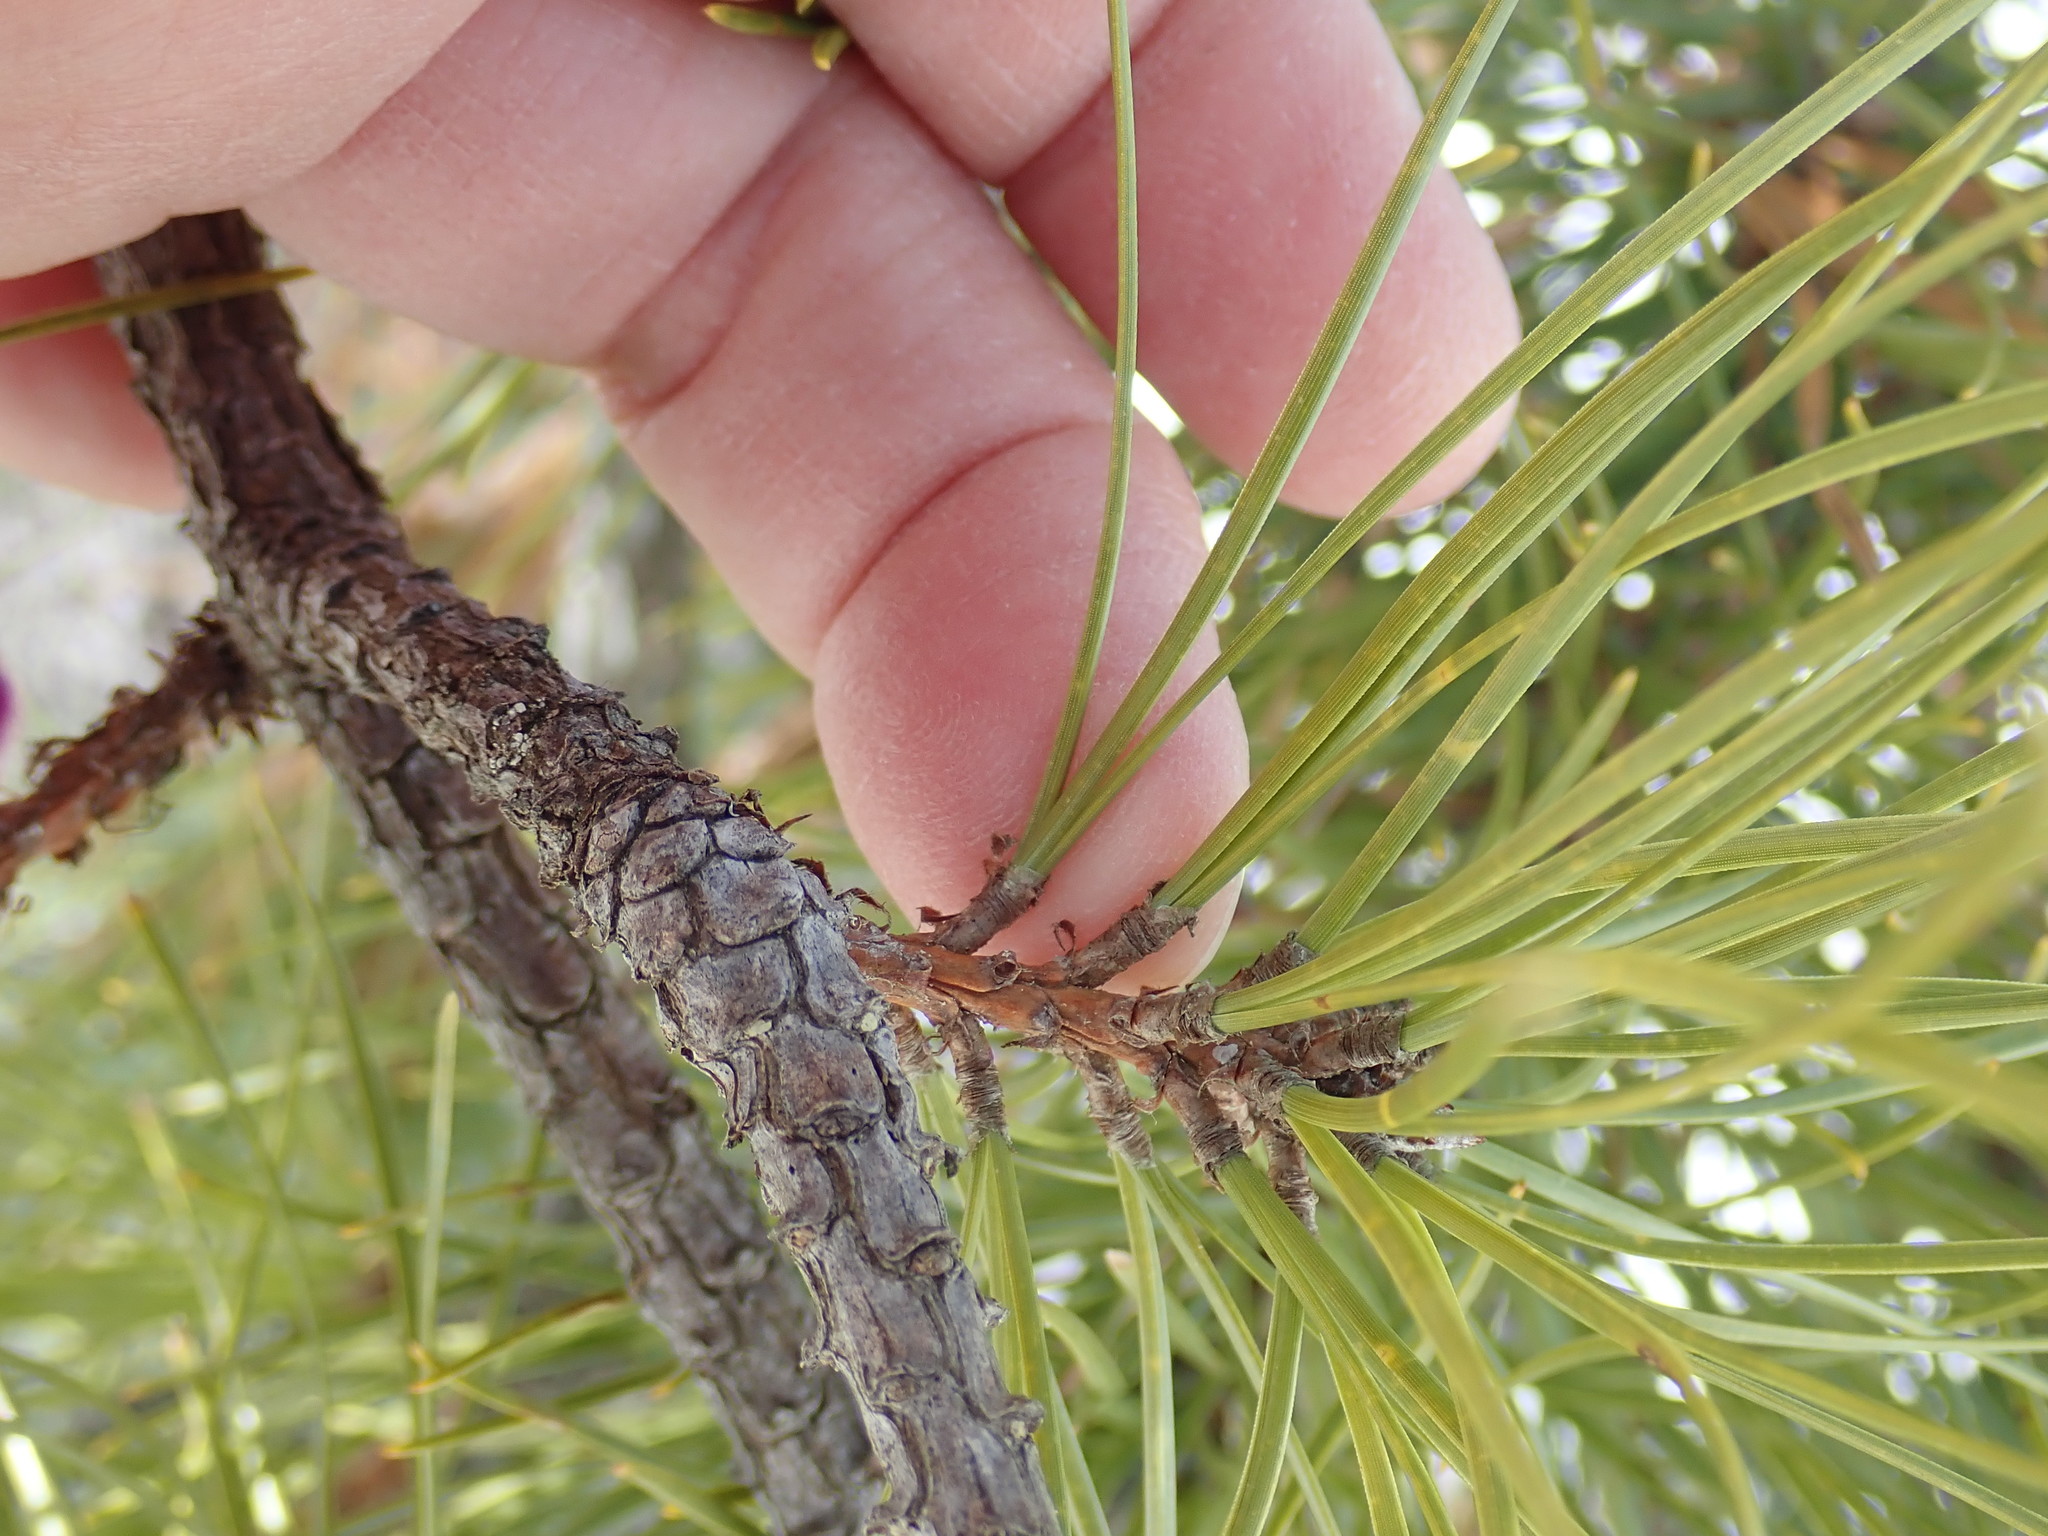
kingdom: Plantae
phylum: Tracheophyta
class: Pinopsida
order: Pinales
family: Pinaceae
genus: Pinus
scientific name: Pinus rigida
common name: Pitch pine
